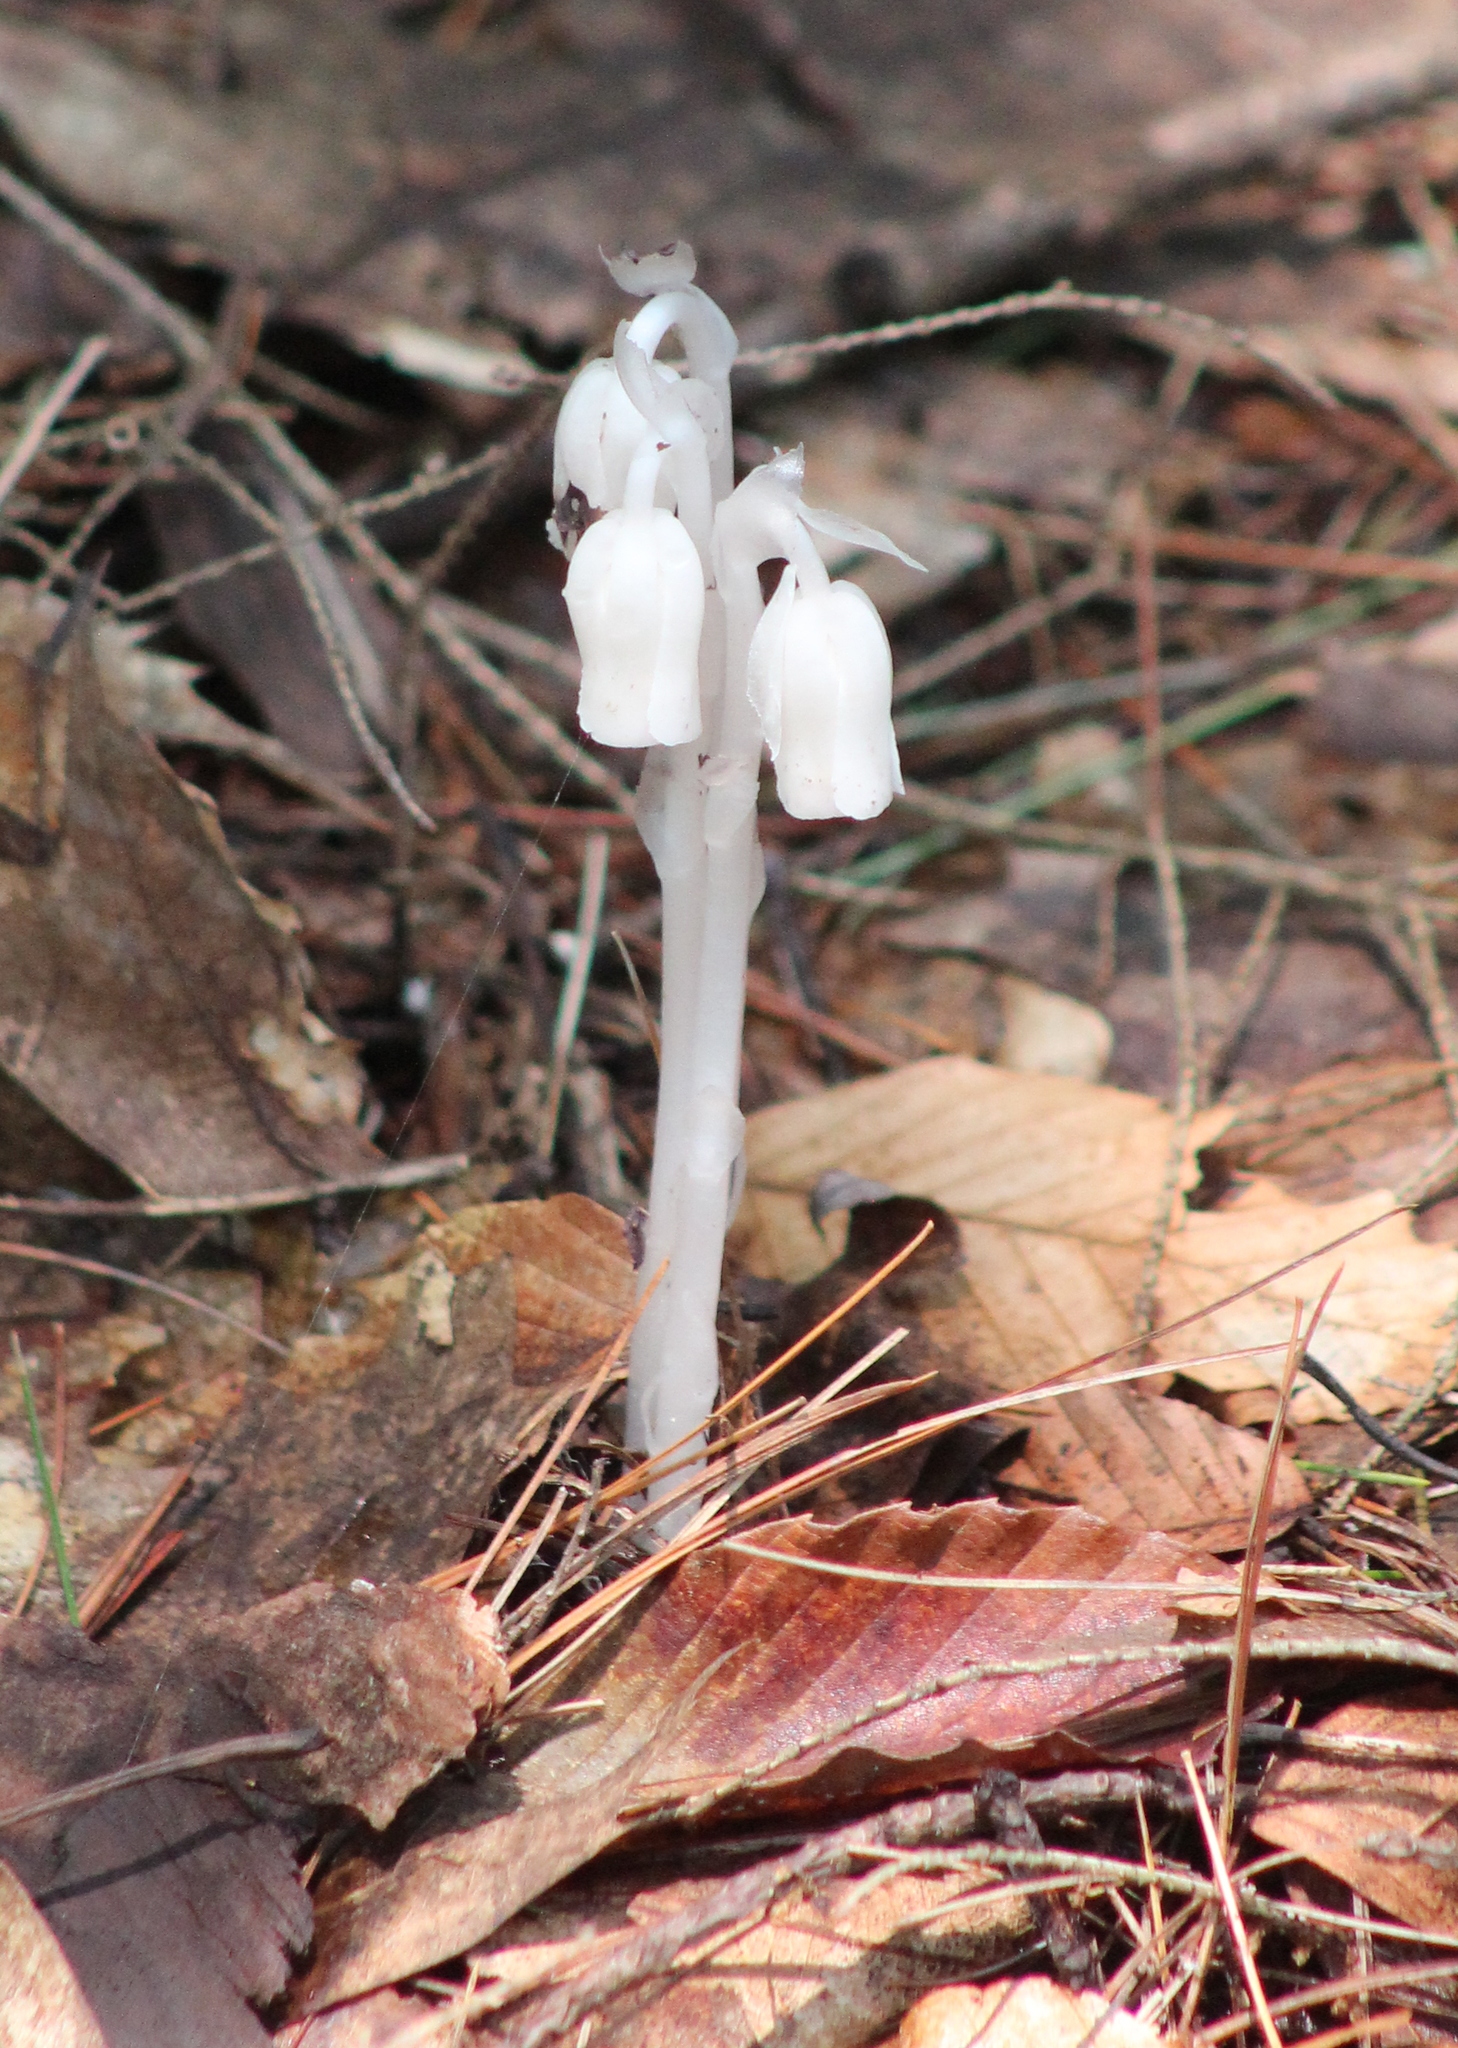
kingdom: Plantae
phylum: Tracheophyta
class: Magnoliopsida
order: Ericales
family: Ericaceae
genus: Monotropa
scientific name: Monotropa uniflora
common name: Convulsion root
